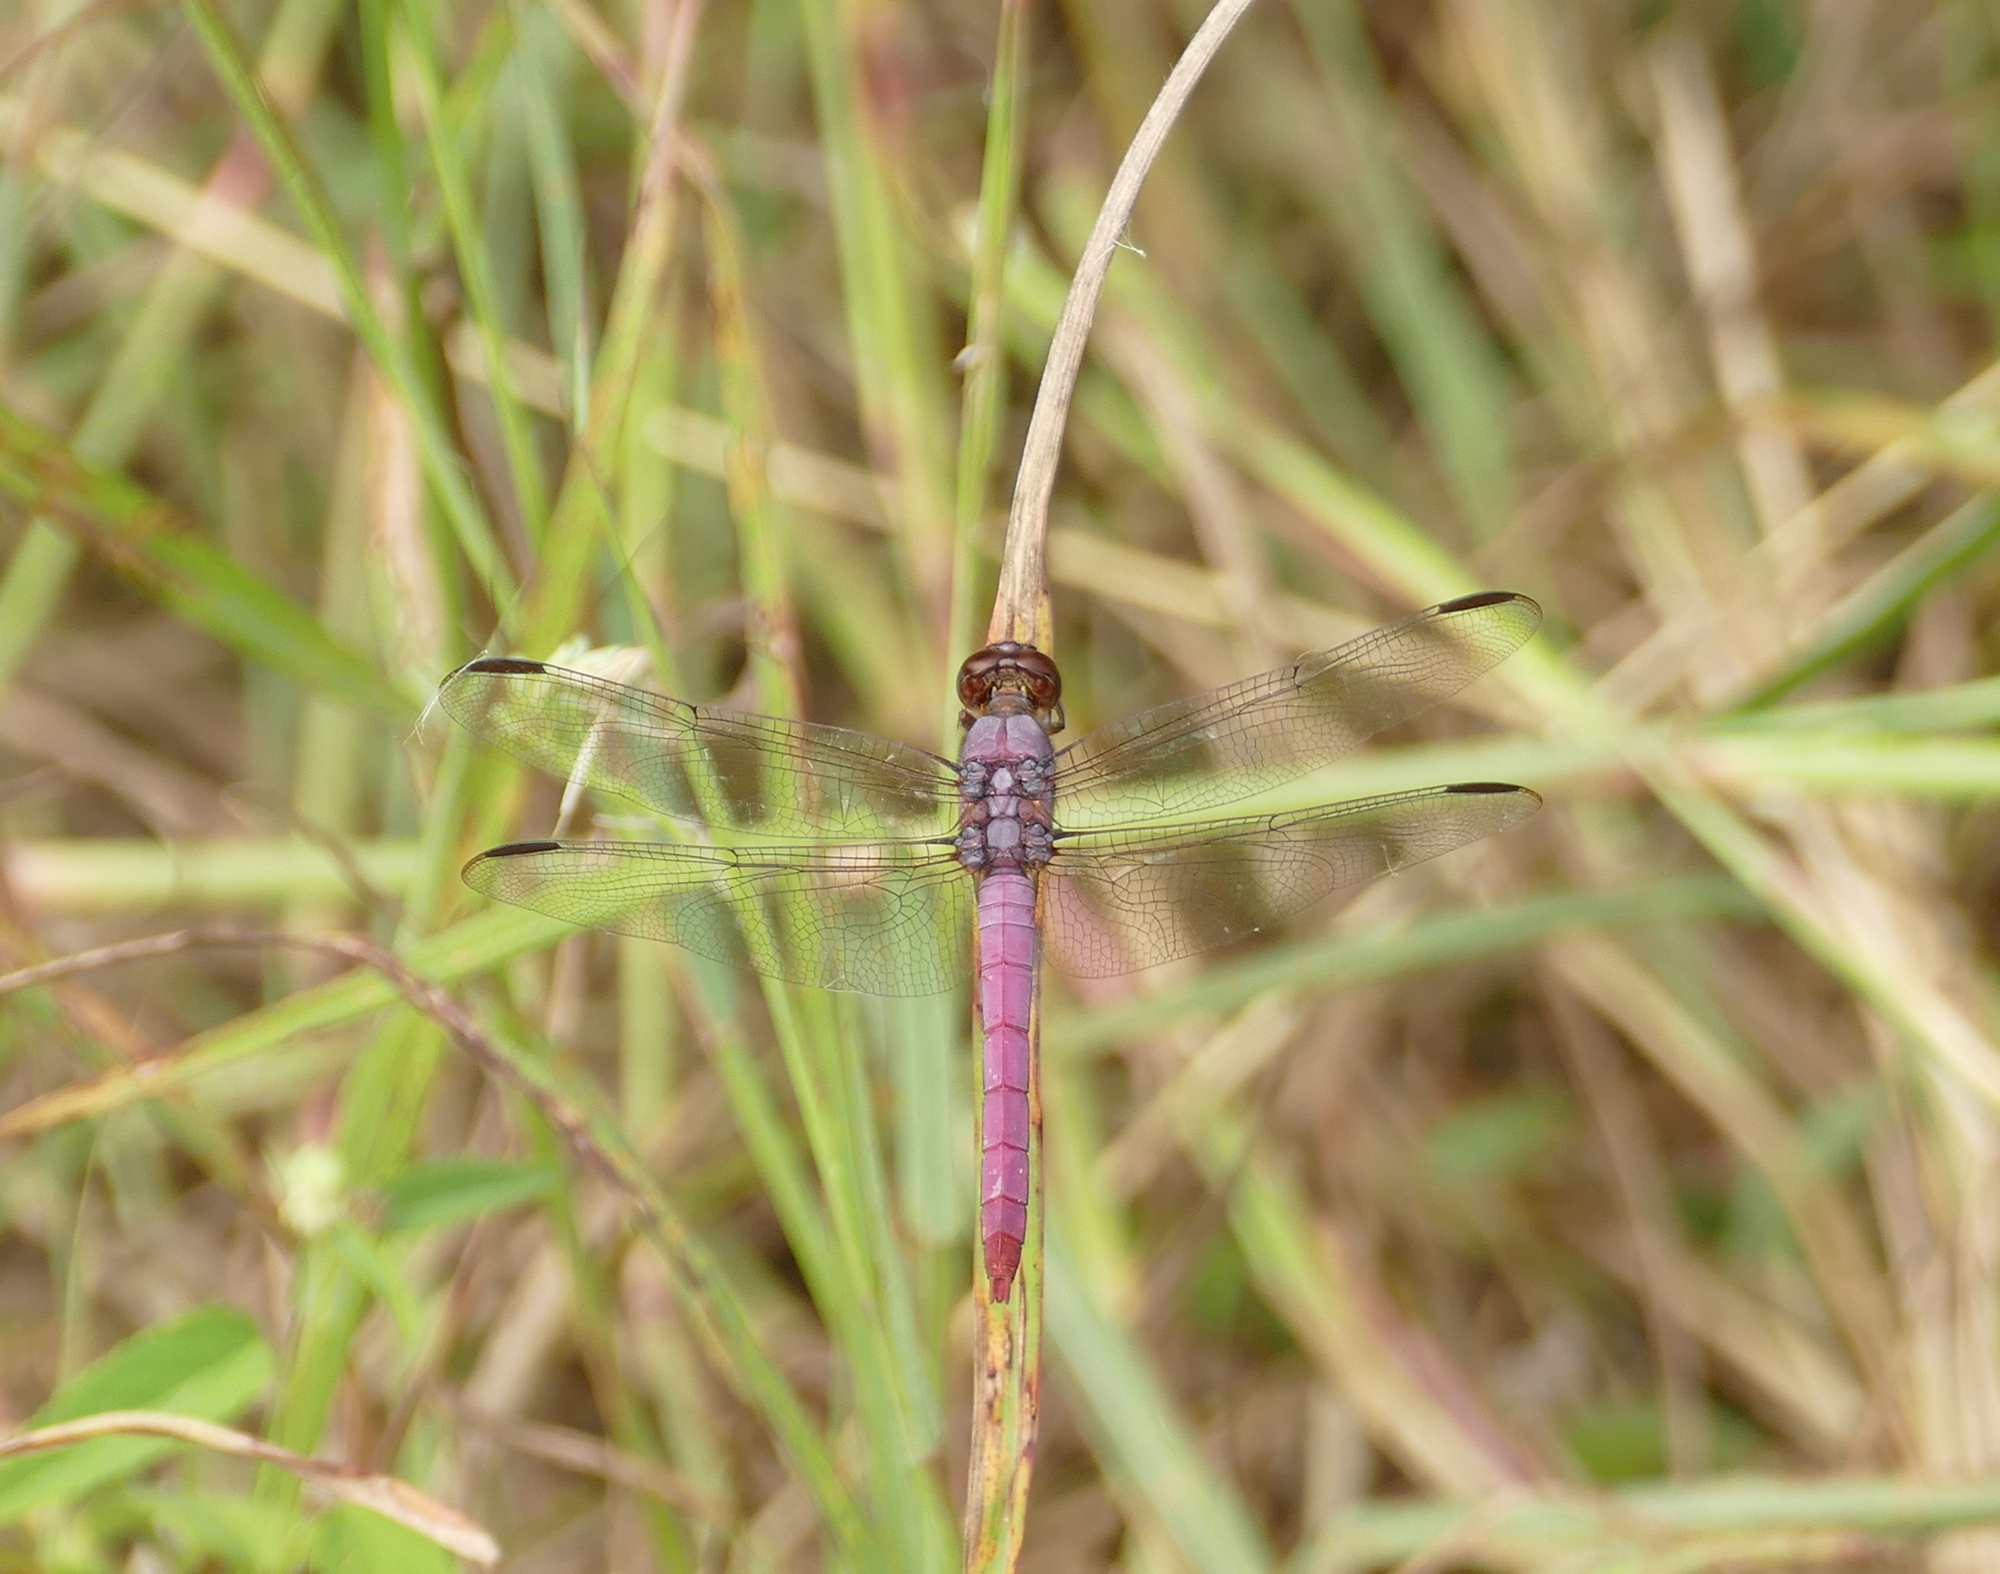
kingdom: Animalia
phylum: Arthropoda
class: Insecta
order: Odonata
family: Libellulidae
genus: Orthemis
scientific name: Orthemis ferruginea
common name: Roseate skimmer
